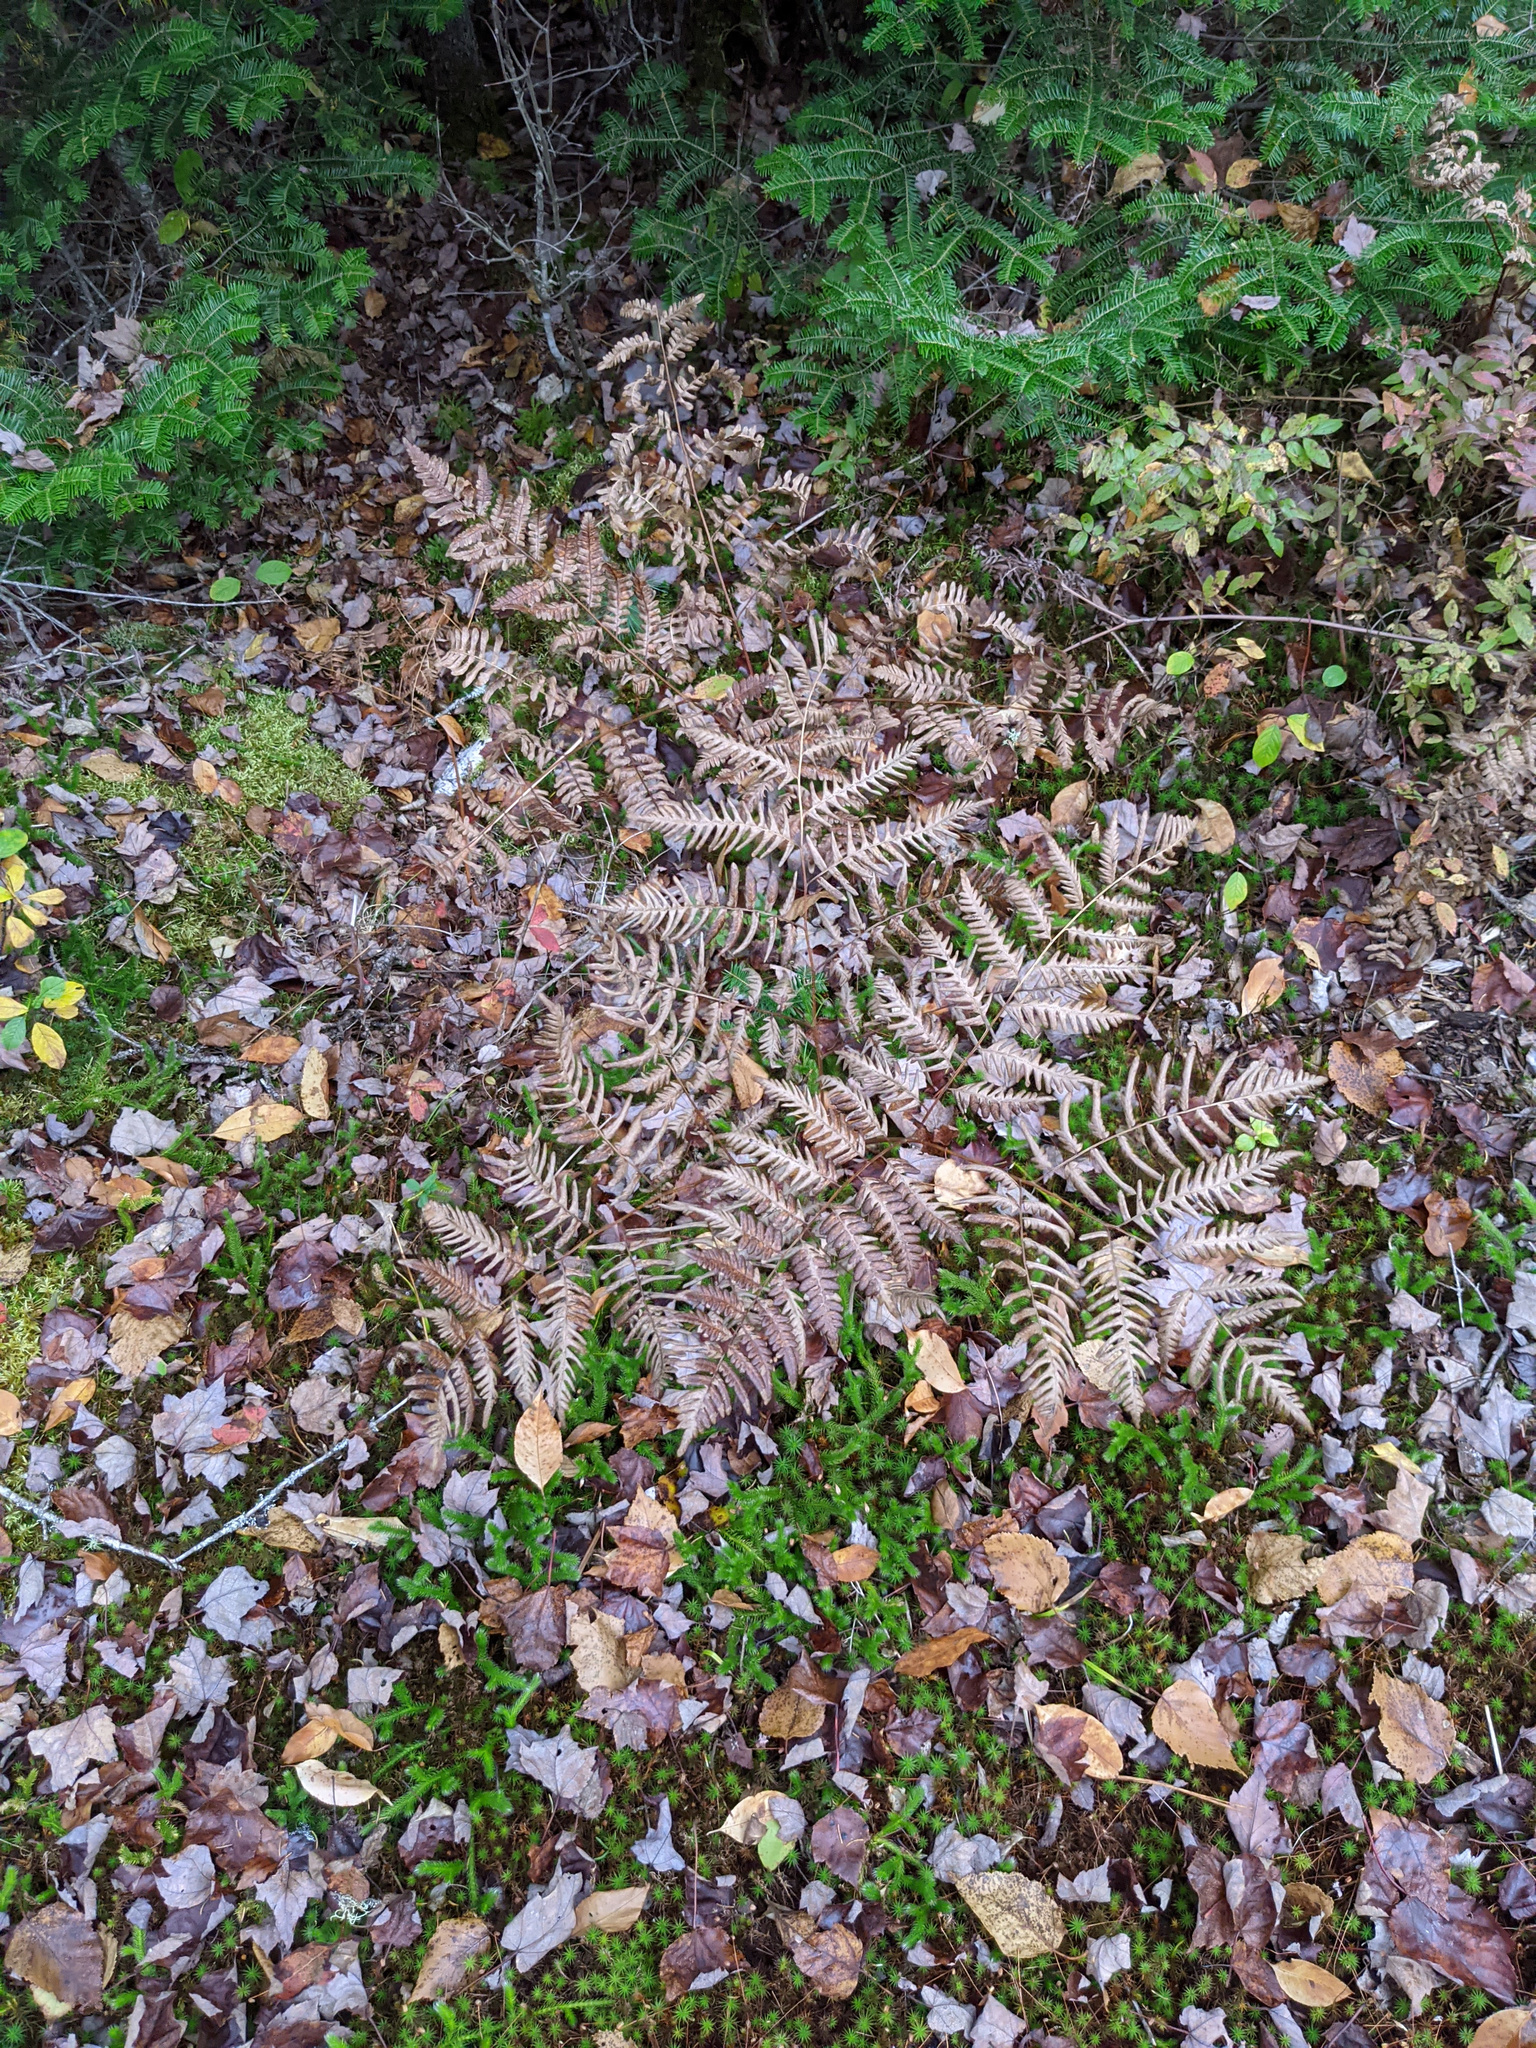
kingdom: Plantae
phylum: Tracheophyta
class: Polypodiopsida
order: Polypodiales
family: Dennstaedtiaceae
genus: Pteridium
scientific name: Pteridium aquilinum
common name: Bracken
